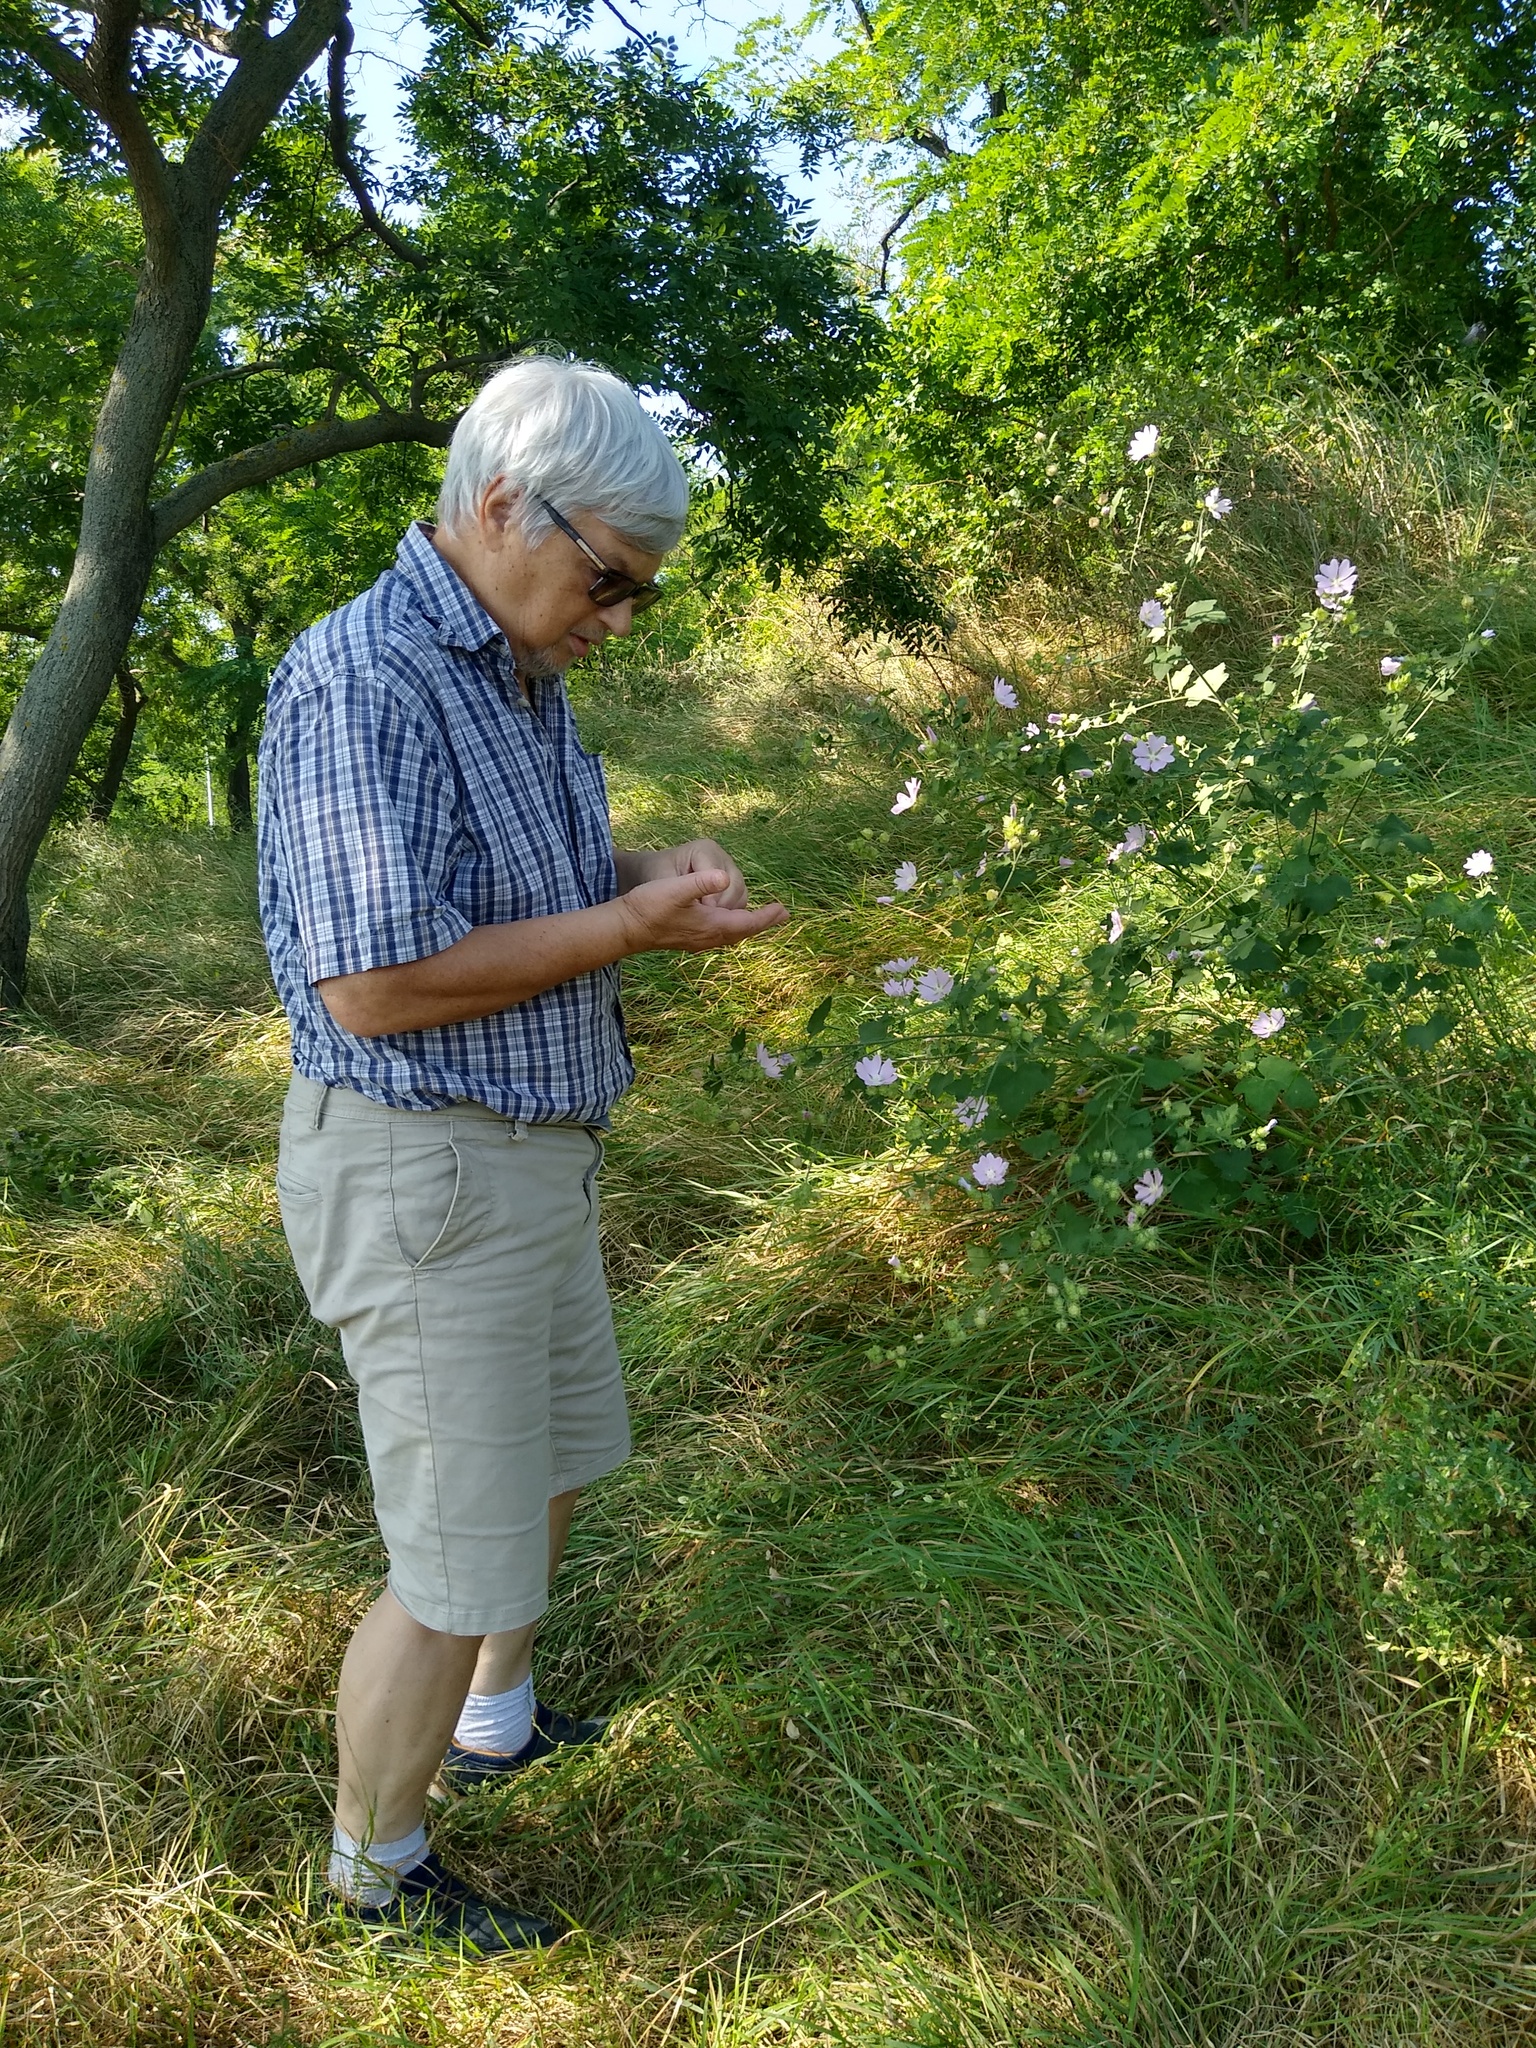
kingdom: Plantae
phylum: Tracheophyta
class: Magnoliopsida
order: Malvales
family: Malvaceae
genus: Malva
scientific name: Malva thuringiaca
